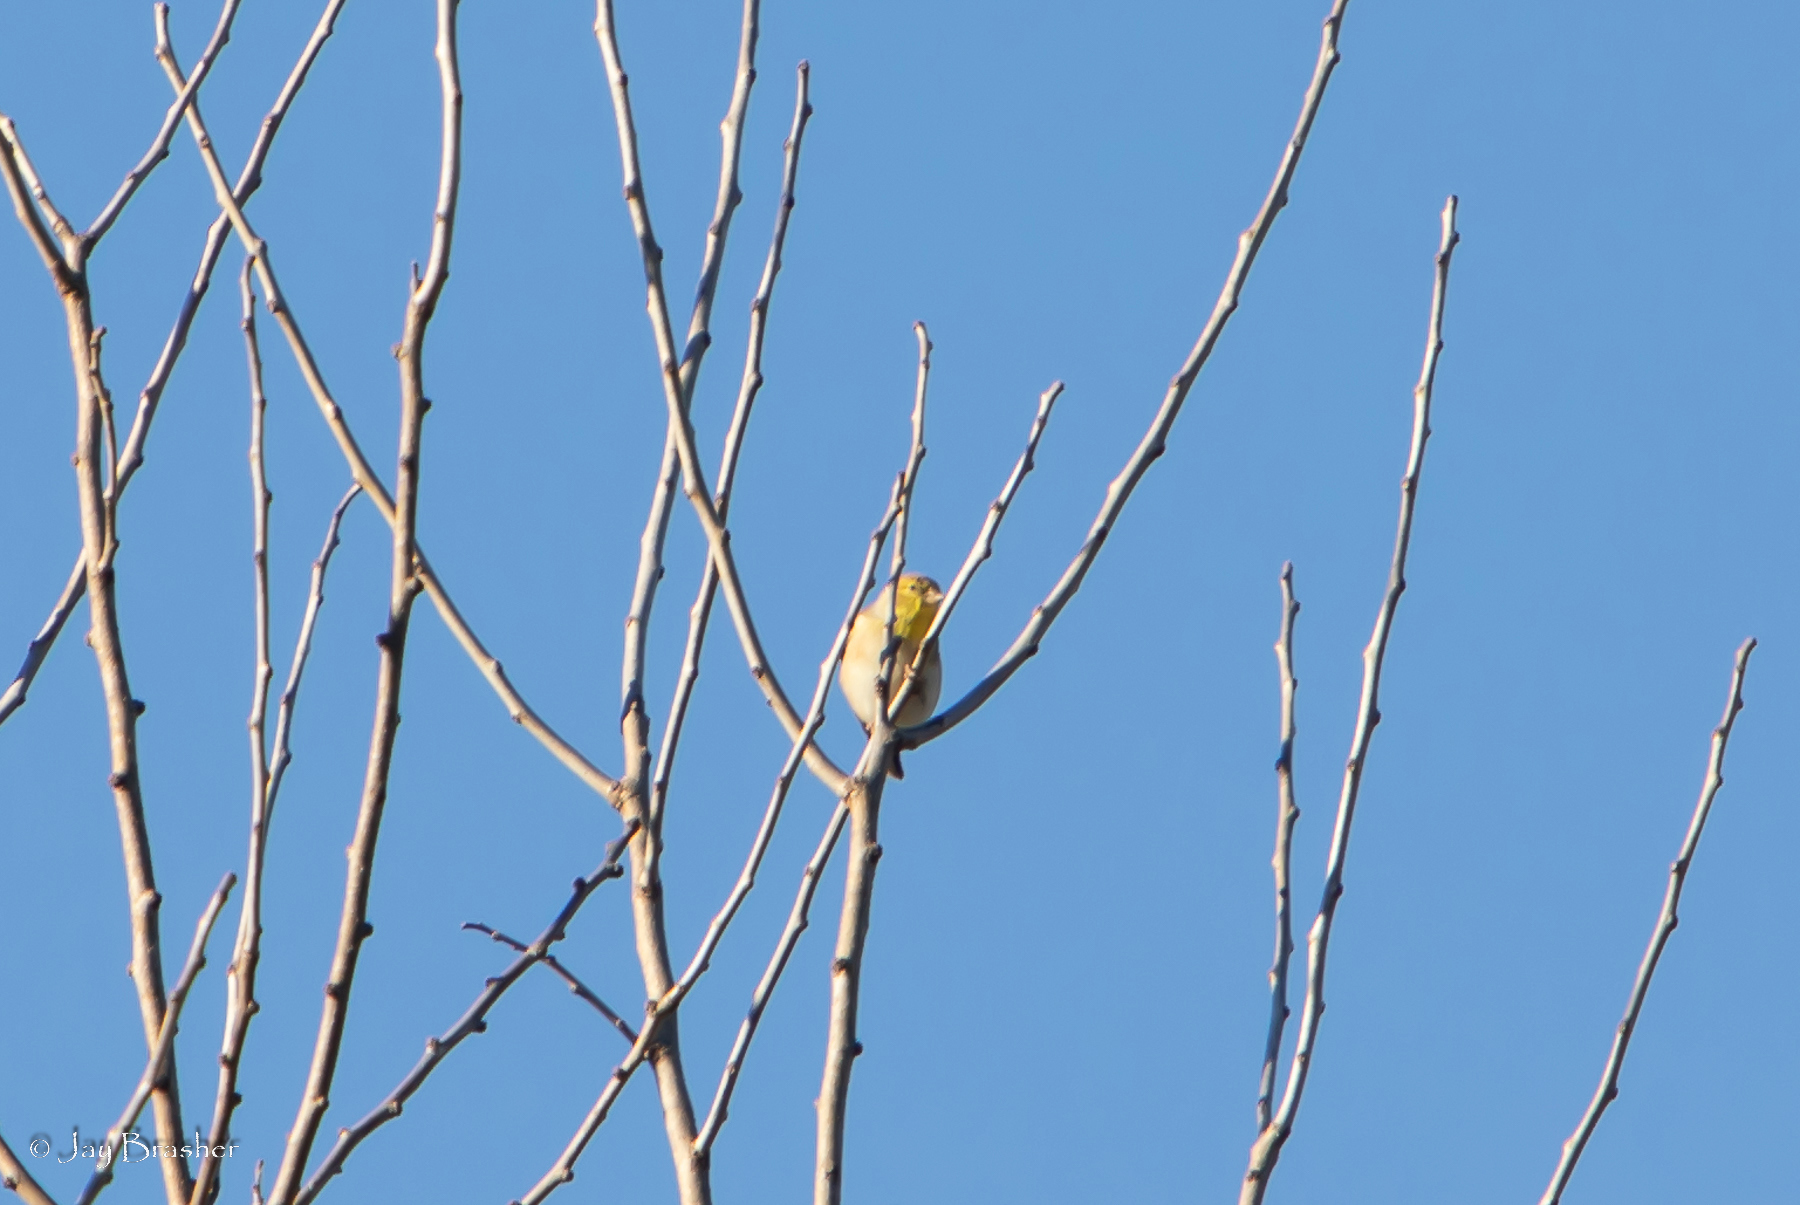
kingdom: Animalia
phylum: Chordata
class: Aves
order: Passeriformes
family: Fringillidae
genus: Spinus
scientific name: Spinus tristis
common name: American goldfinch
